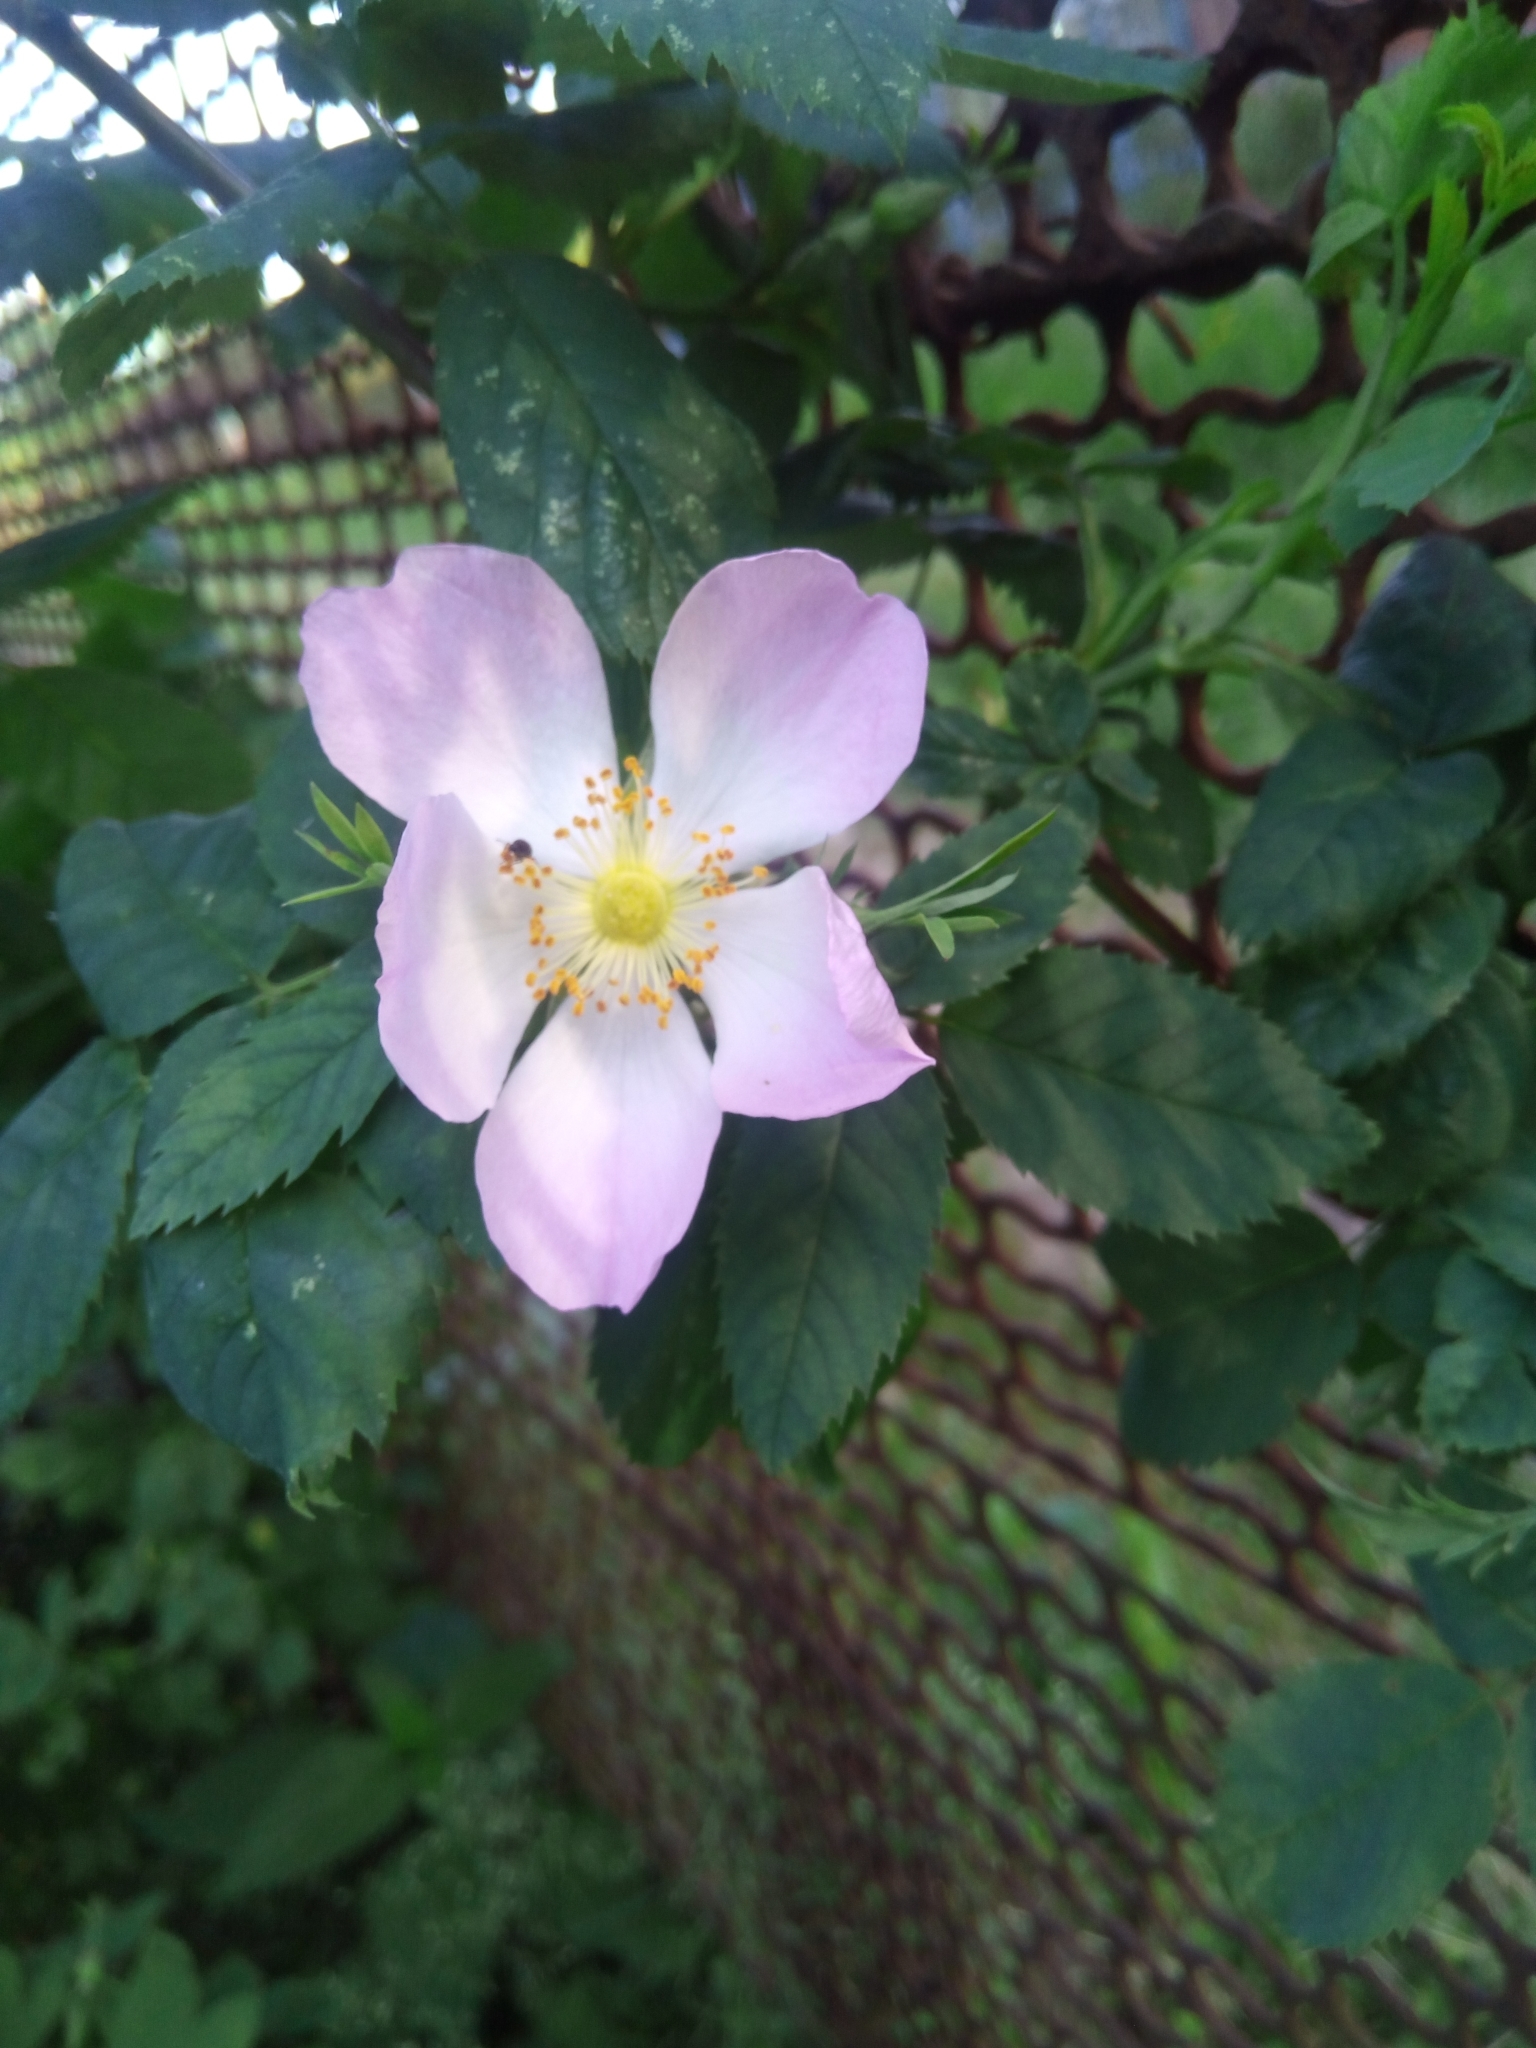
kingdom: Plantae
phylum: Tracheophyta
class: Magnoliopsida
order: Rosales
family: Rosaceae
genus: Rosa
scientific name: Rosa
